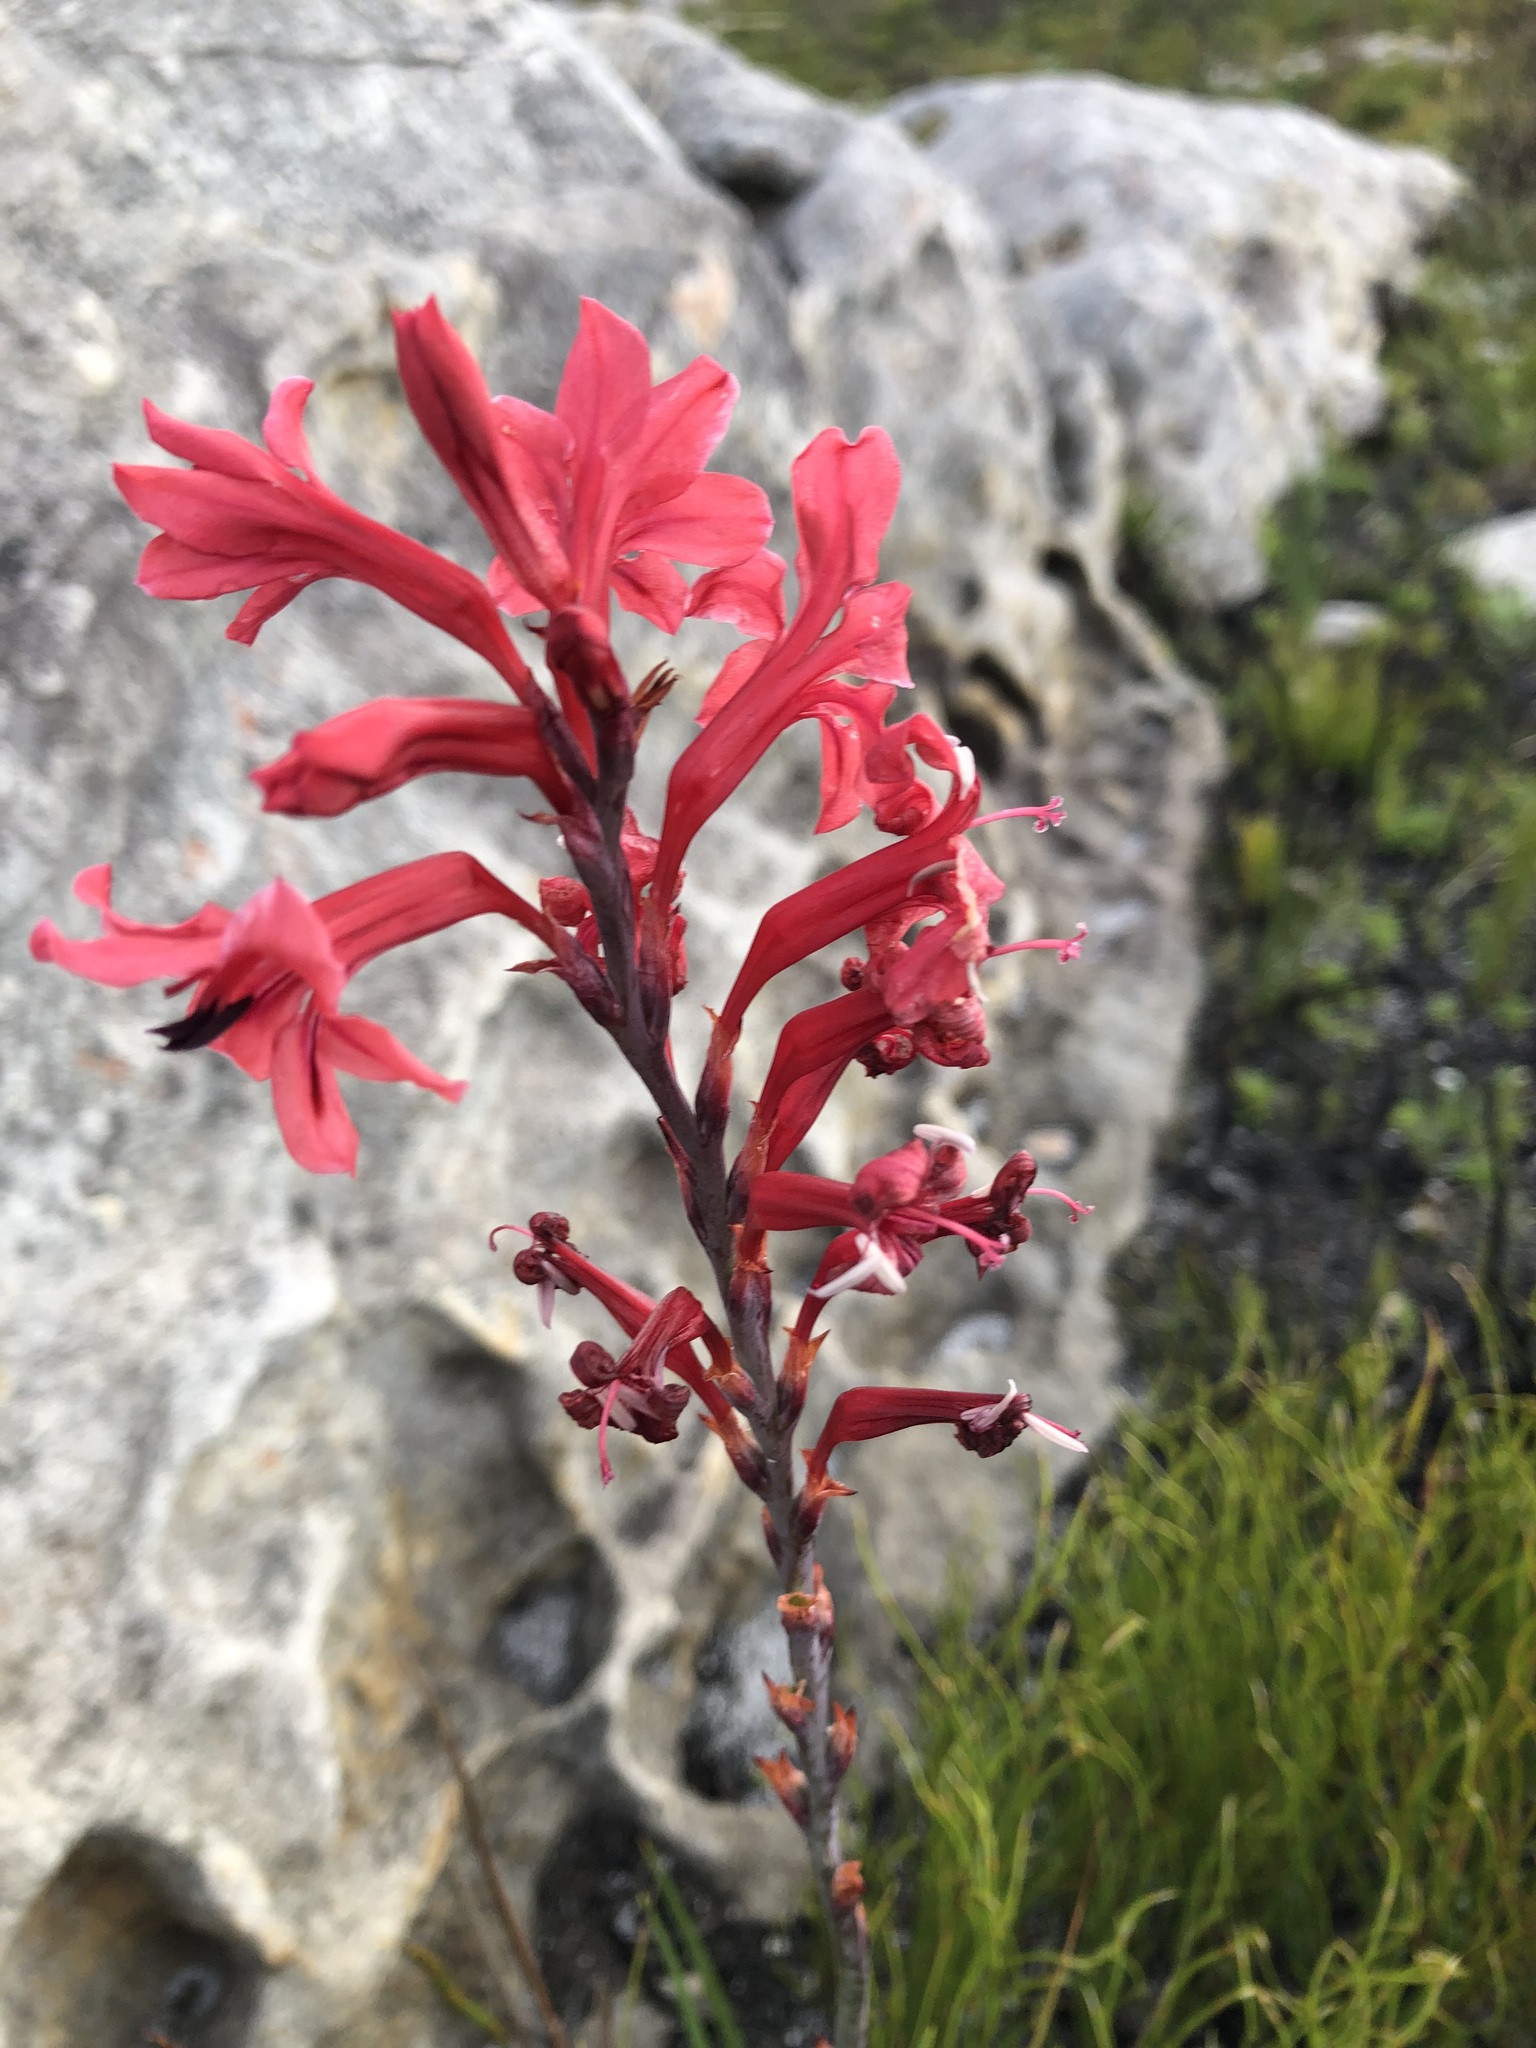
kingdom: Plantae
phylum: Tracheophyta
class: Liliopsida
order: Asparagales
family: Iridaceae
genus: Tritoniopsis
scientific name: Tritoniopsis pulchra
